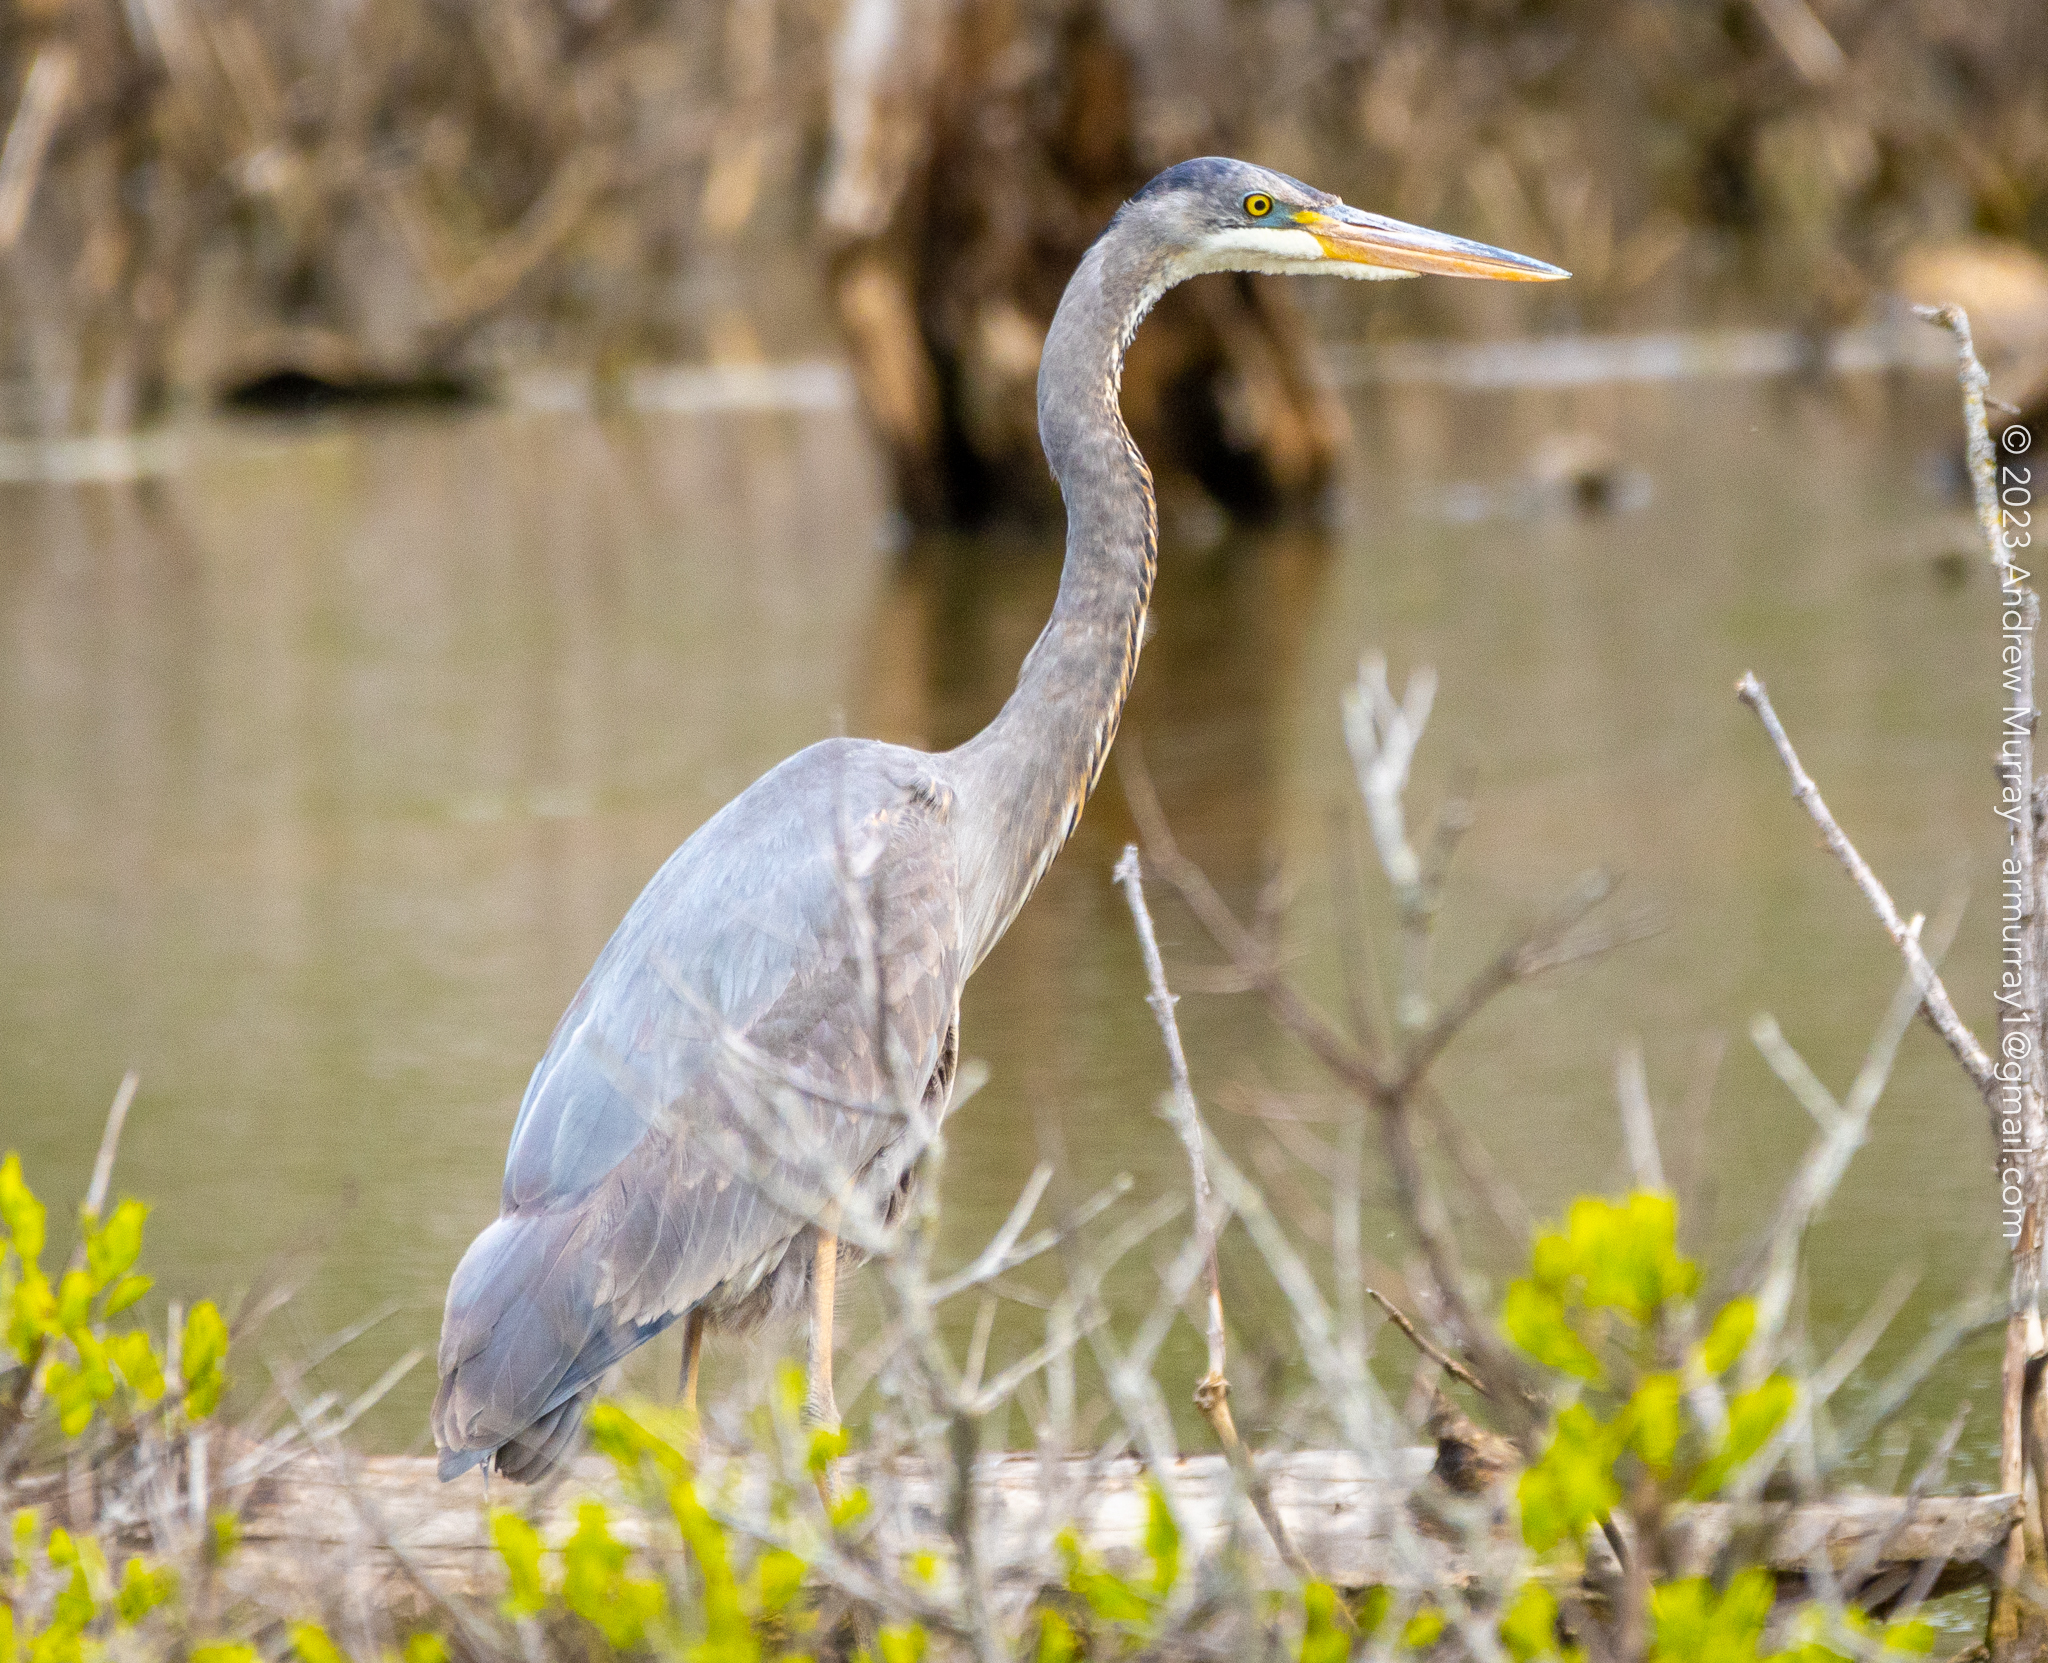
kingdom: Animalia
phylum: Chordata
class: Aves
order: Pelecaniformes
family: Ardeidae
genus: Ardea
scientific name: Ardea herodias
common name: Great blue heron
